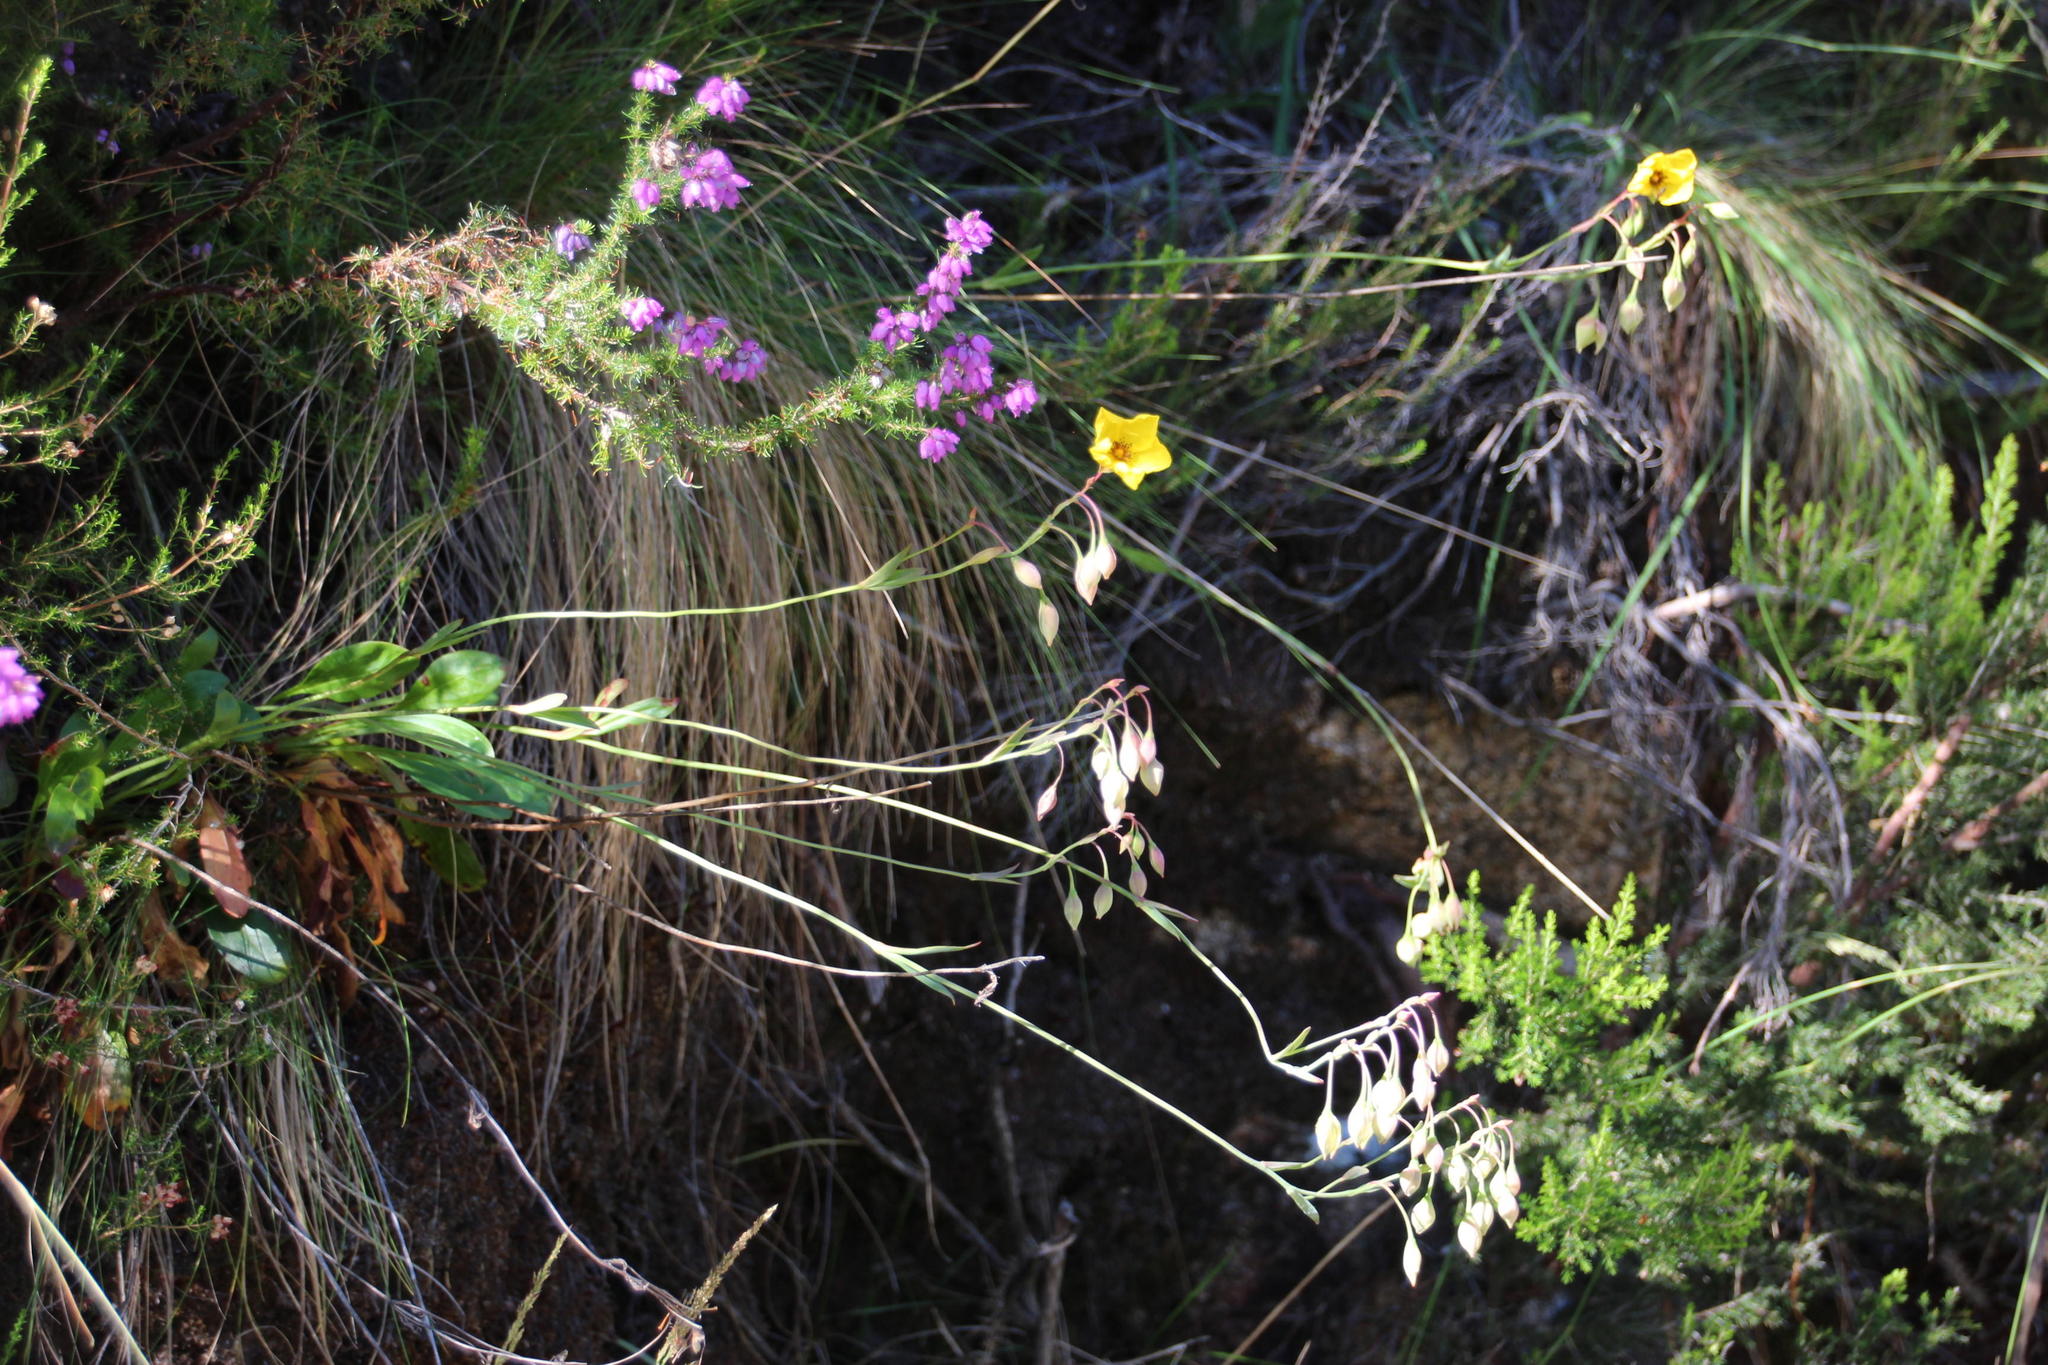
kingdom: Plantae
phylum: Tracheophyta
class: Magnoliopsida
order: Malvales
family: Cistaceae
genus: Tuberaria
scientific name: Tuberaria globulariifolia
